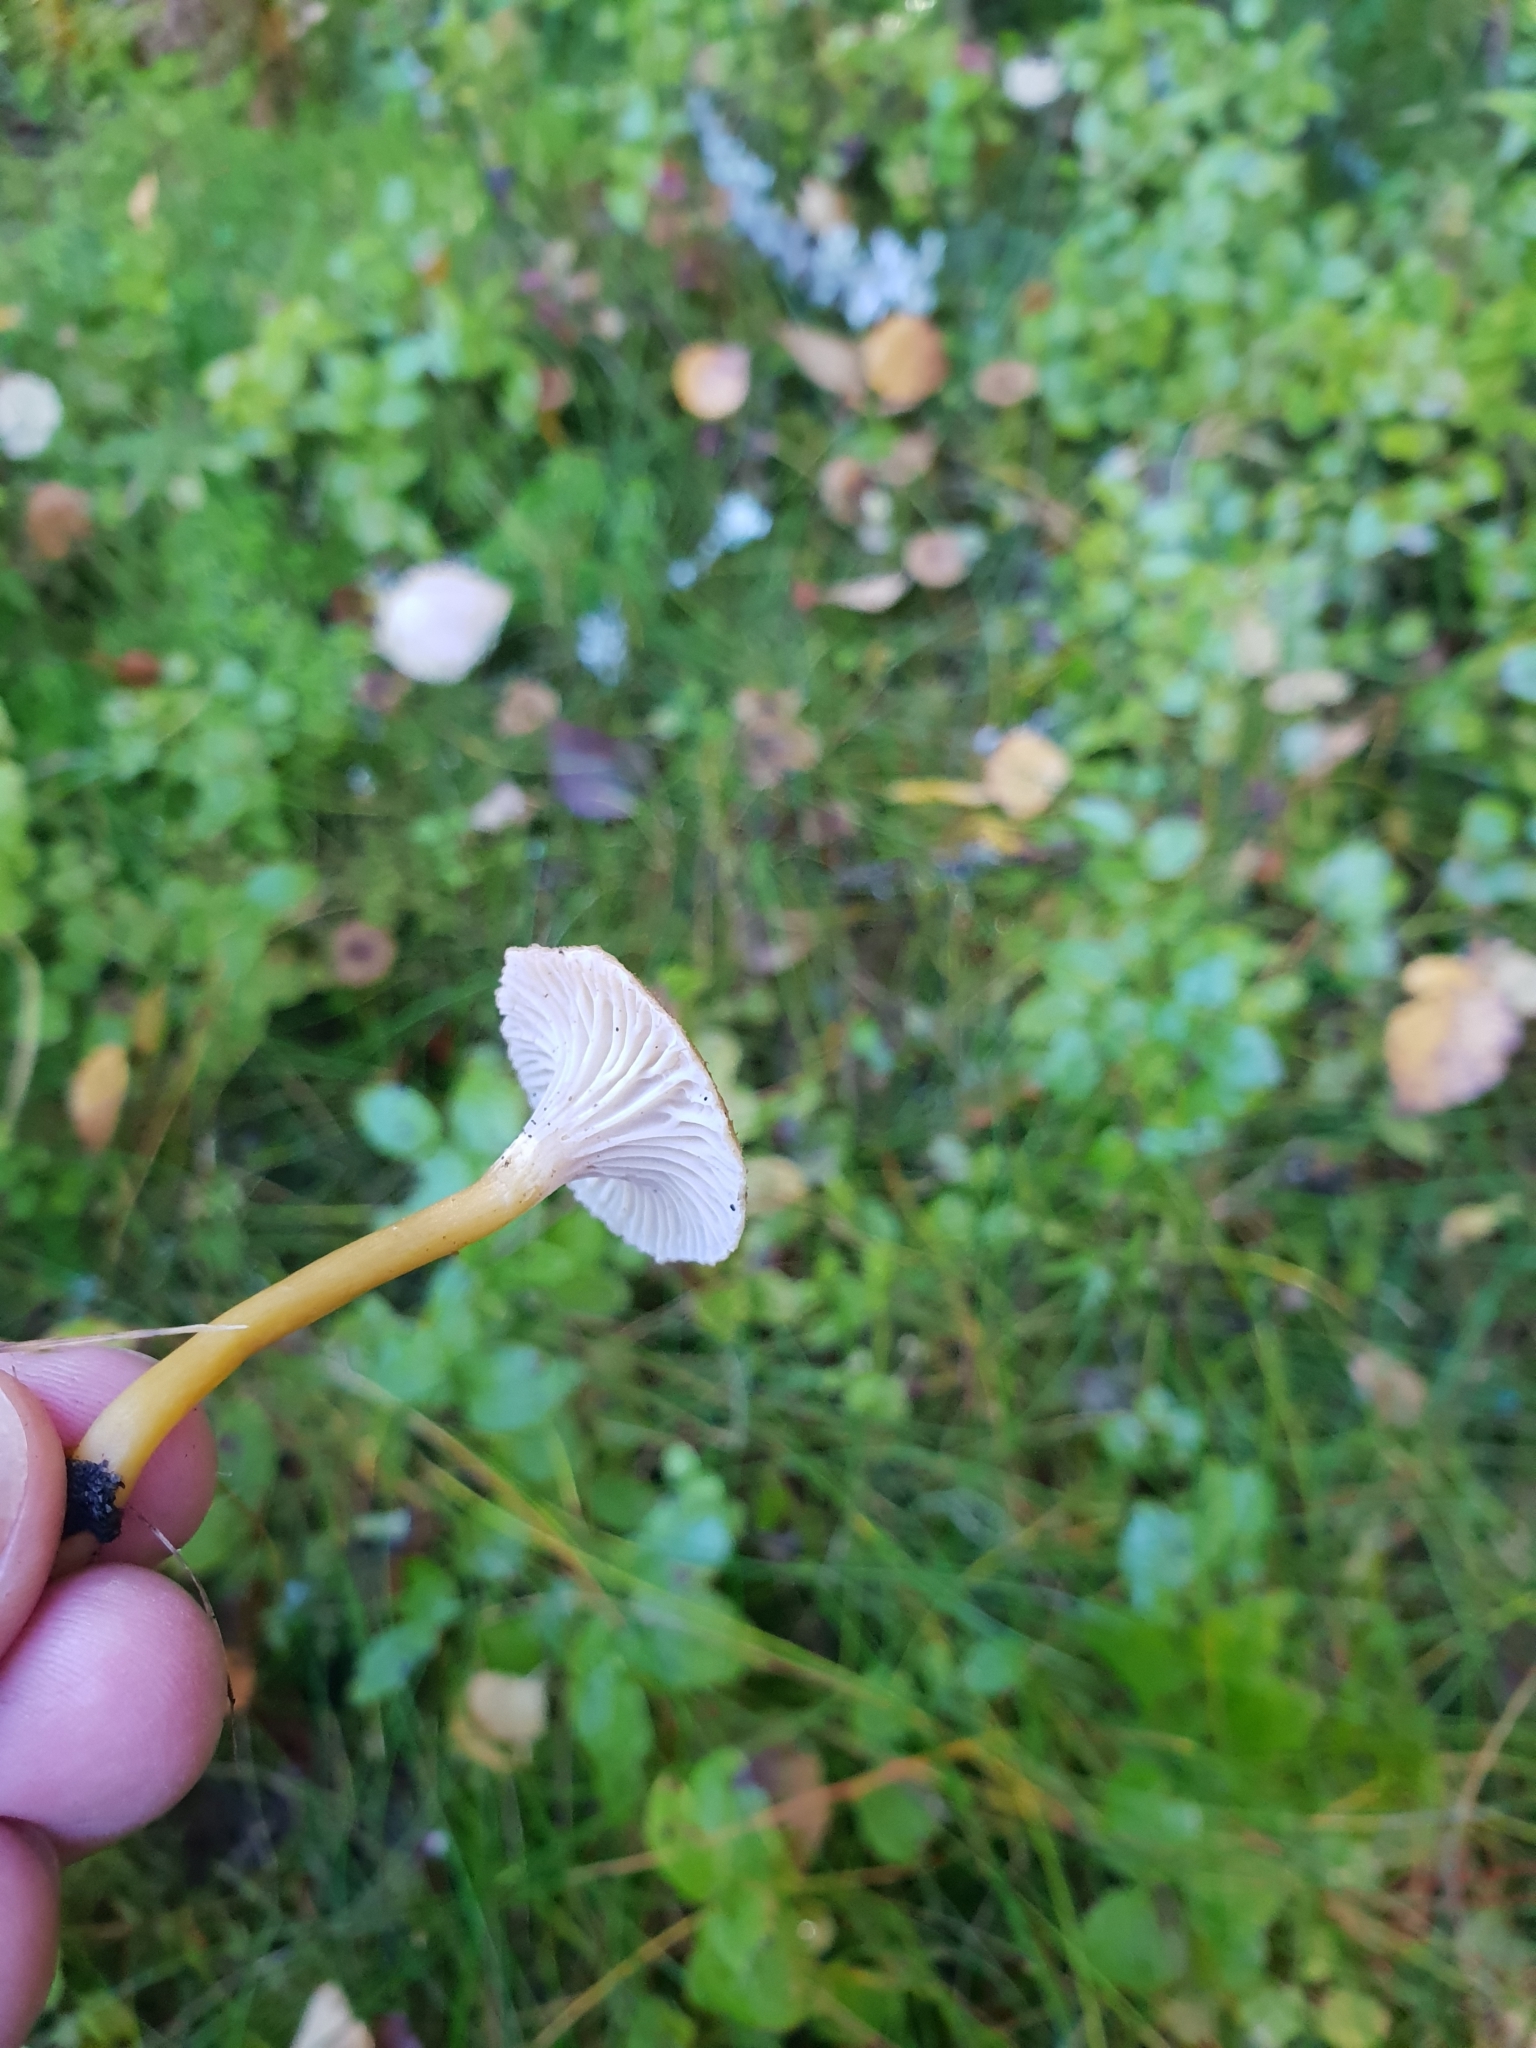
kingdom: Fungi
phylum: Basidiomycota
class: Agaricomycetes
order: Cantharellales
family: Hydnaceae
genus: Craterellus
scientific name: Craterellus tubaeformis
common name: Yellowfoot
